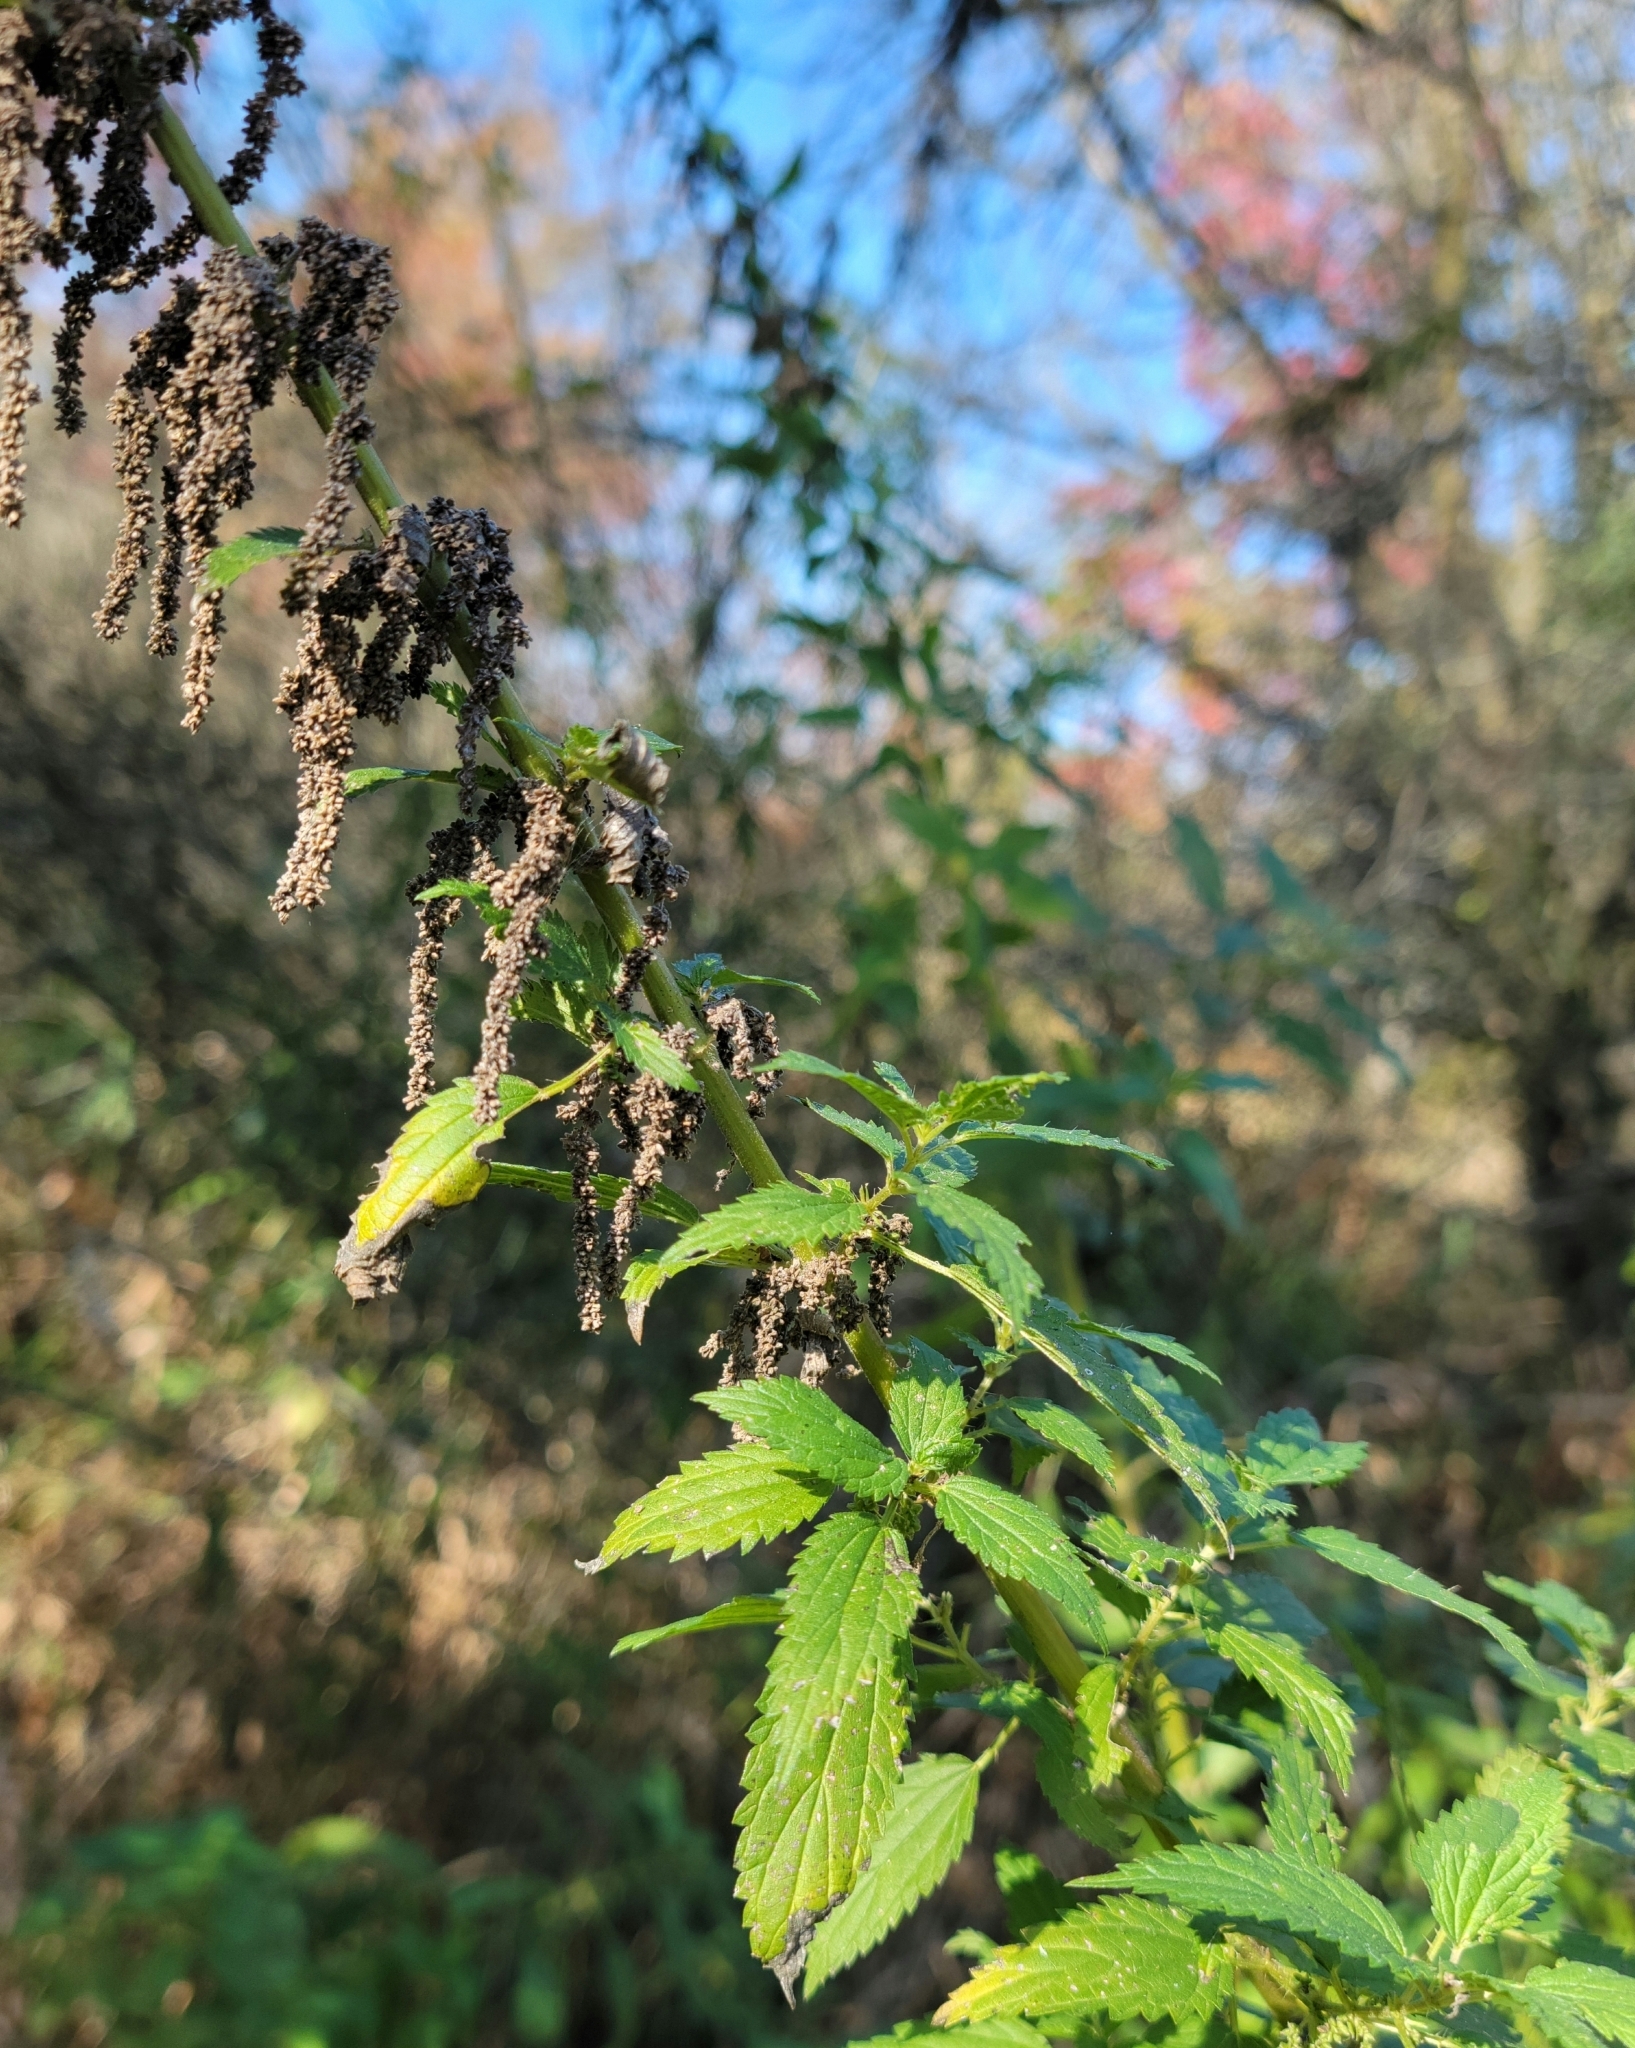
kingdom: Plantae
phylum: Tracheophyta
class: Magnoliopsida
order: Rosales
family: Urticaceae
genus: Urtica
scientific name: Urtica gracilis
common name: Slender stinging nettle
